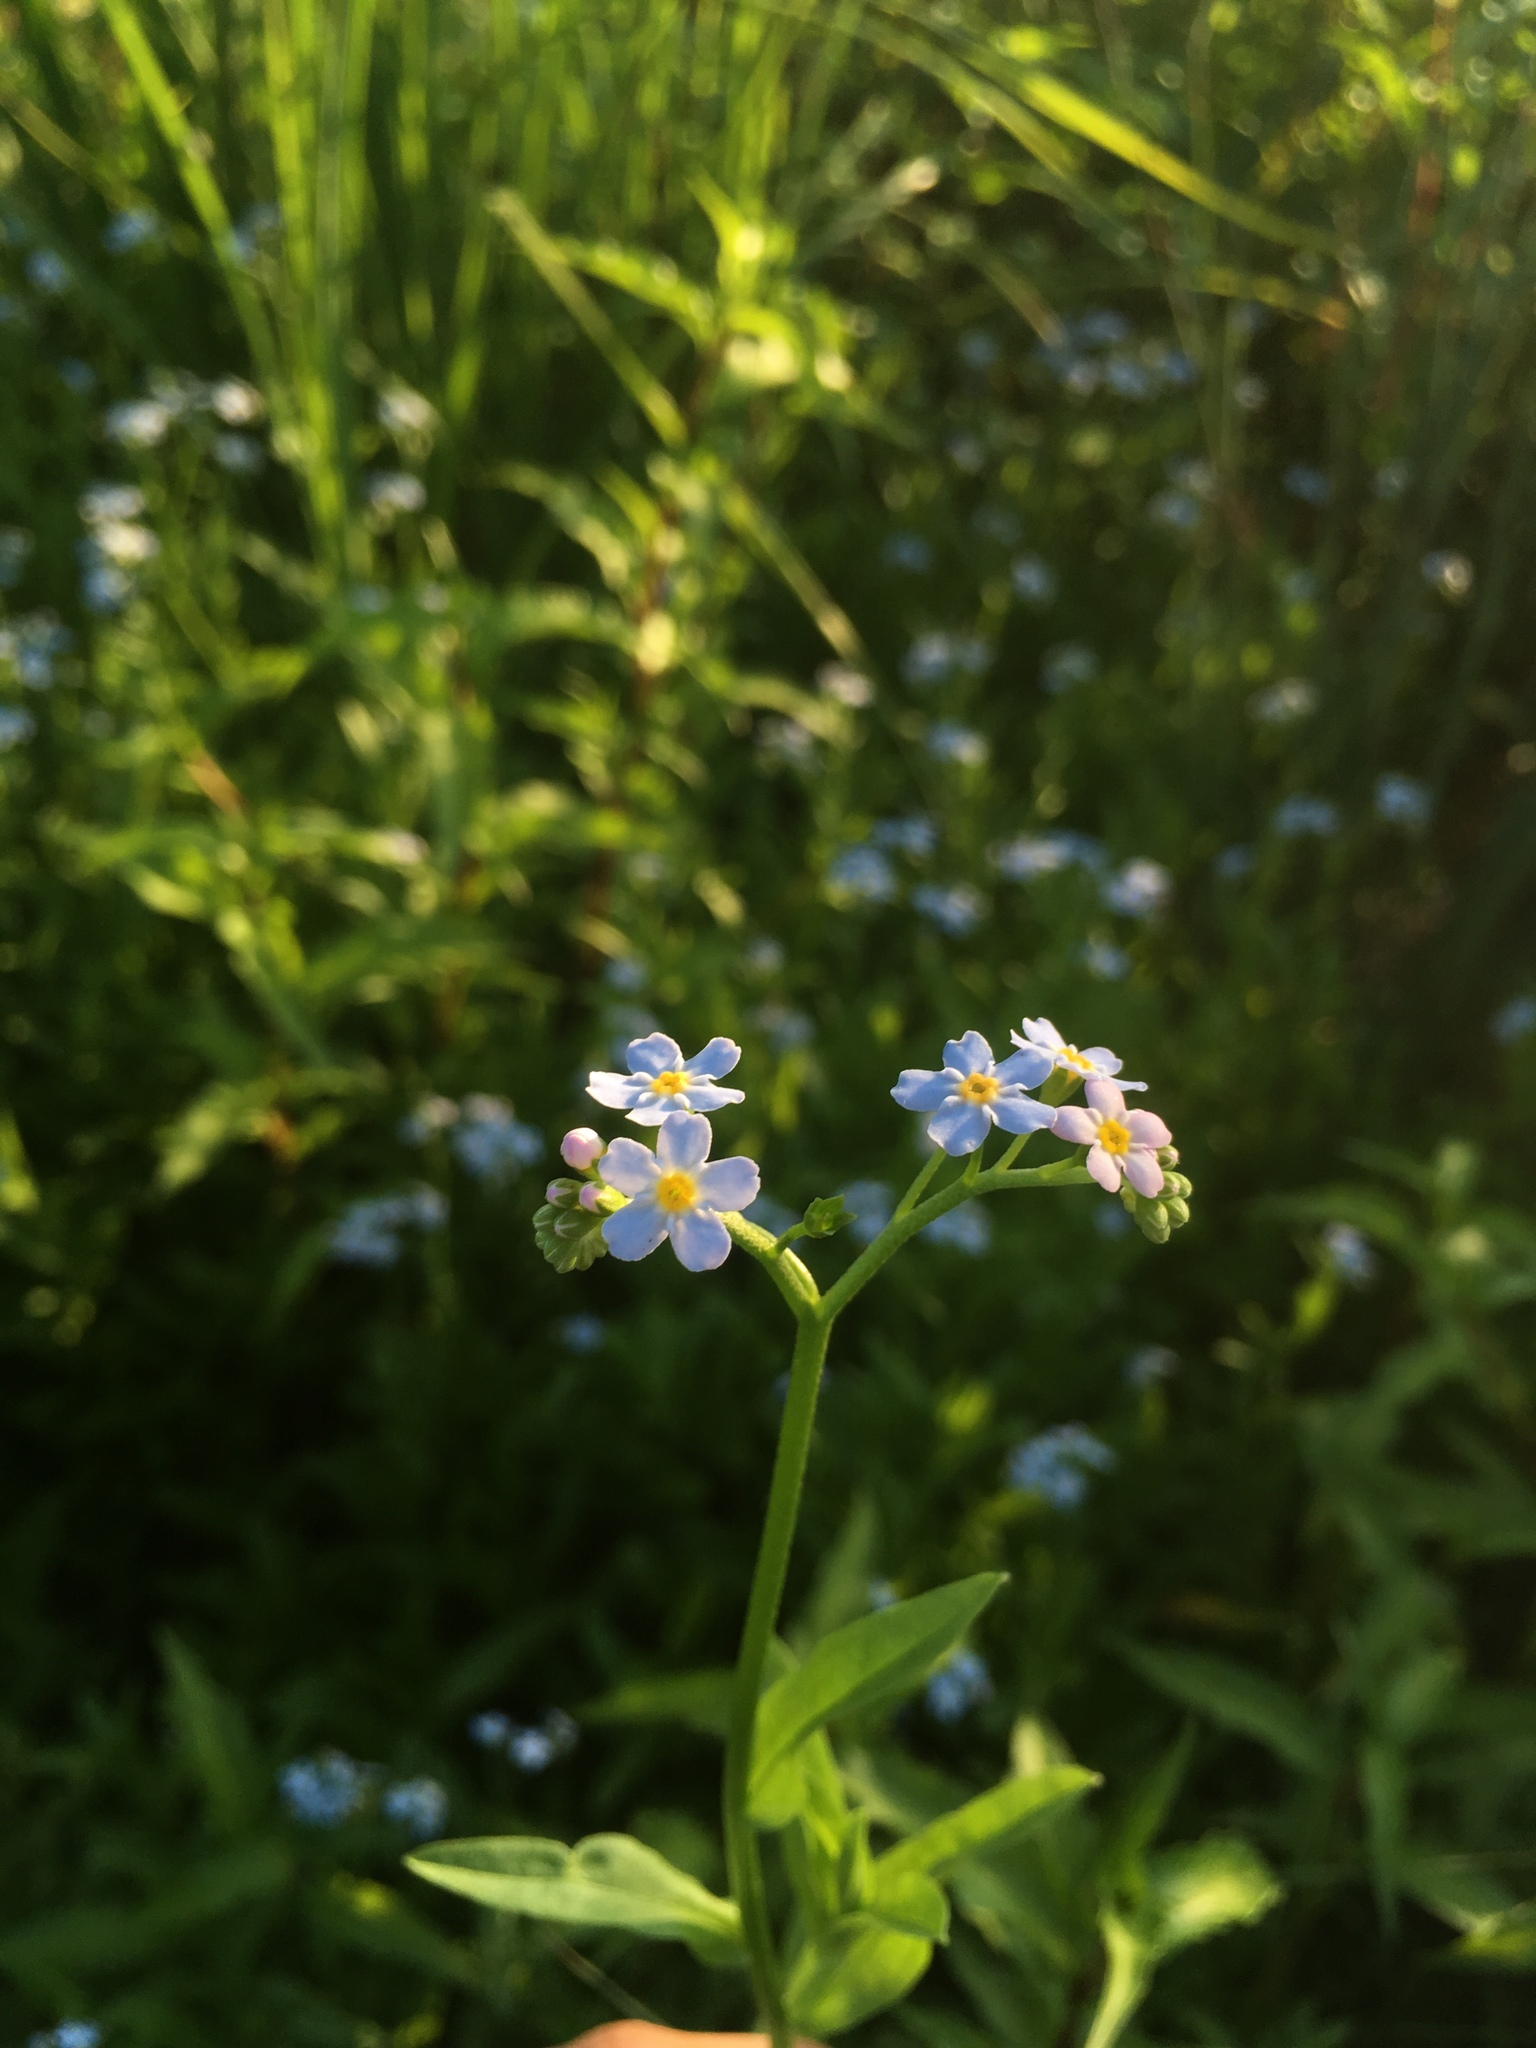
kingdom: Plantae
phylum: Tracheophyta
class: Magnoliopsida
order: Boraginales
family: Boraginaceae
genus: Myosotis
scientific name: Myosotis scorpioides
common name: Water forget-me-not
